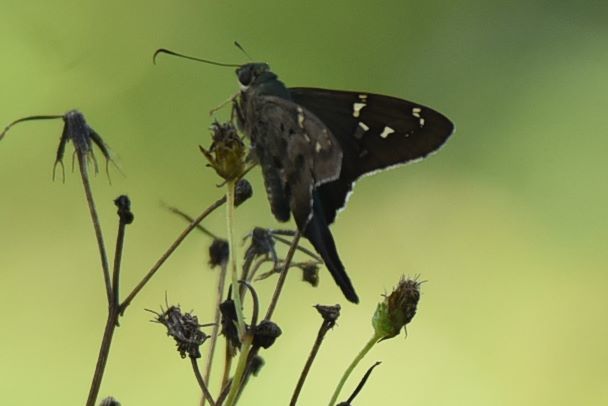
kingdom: Animalia
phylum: Arthropoda
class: Insecta
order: Lepidoptera
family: Hesperiidae
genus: Urbanus
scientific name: Urbanus proteus
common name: Long-tailed skipper
